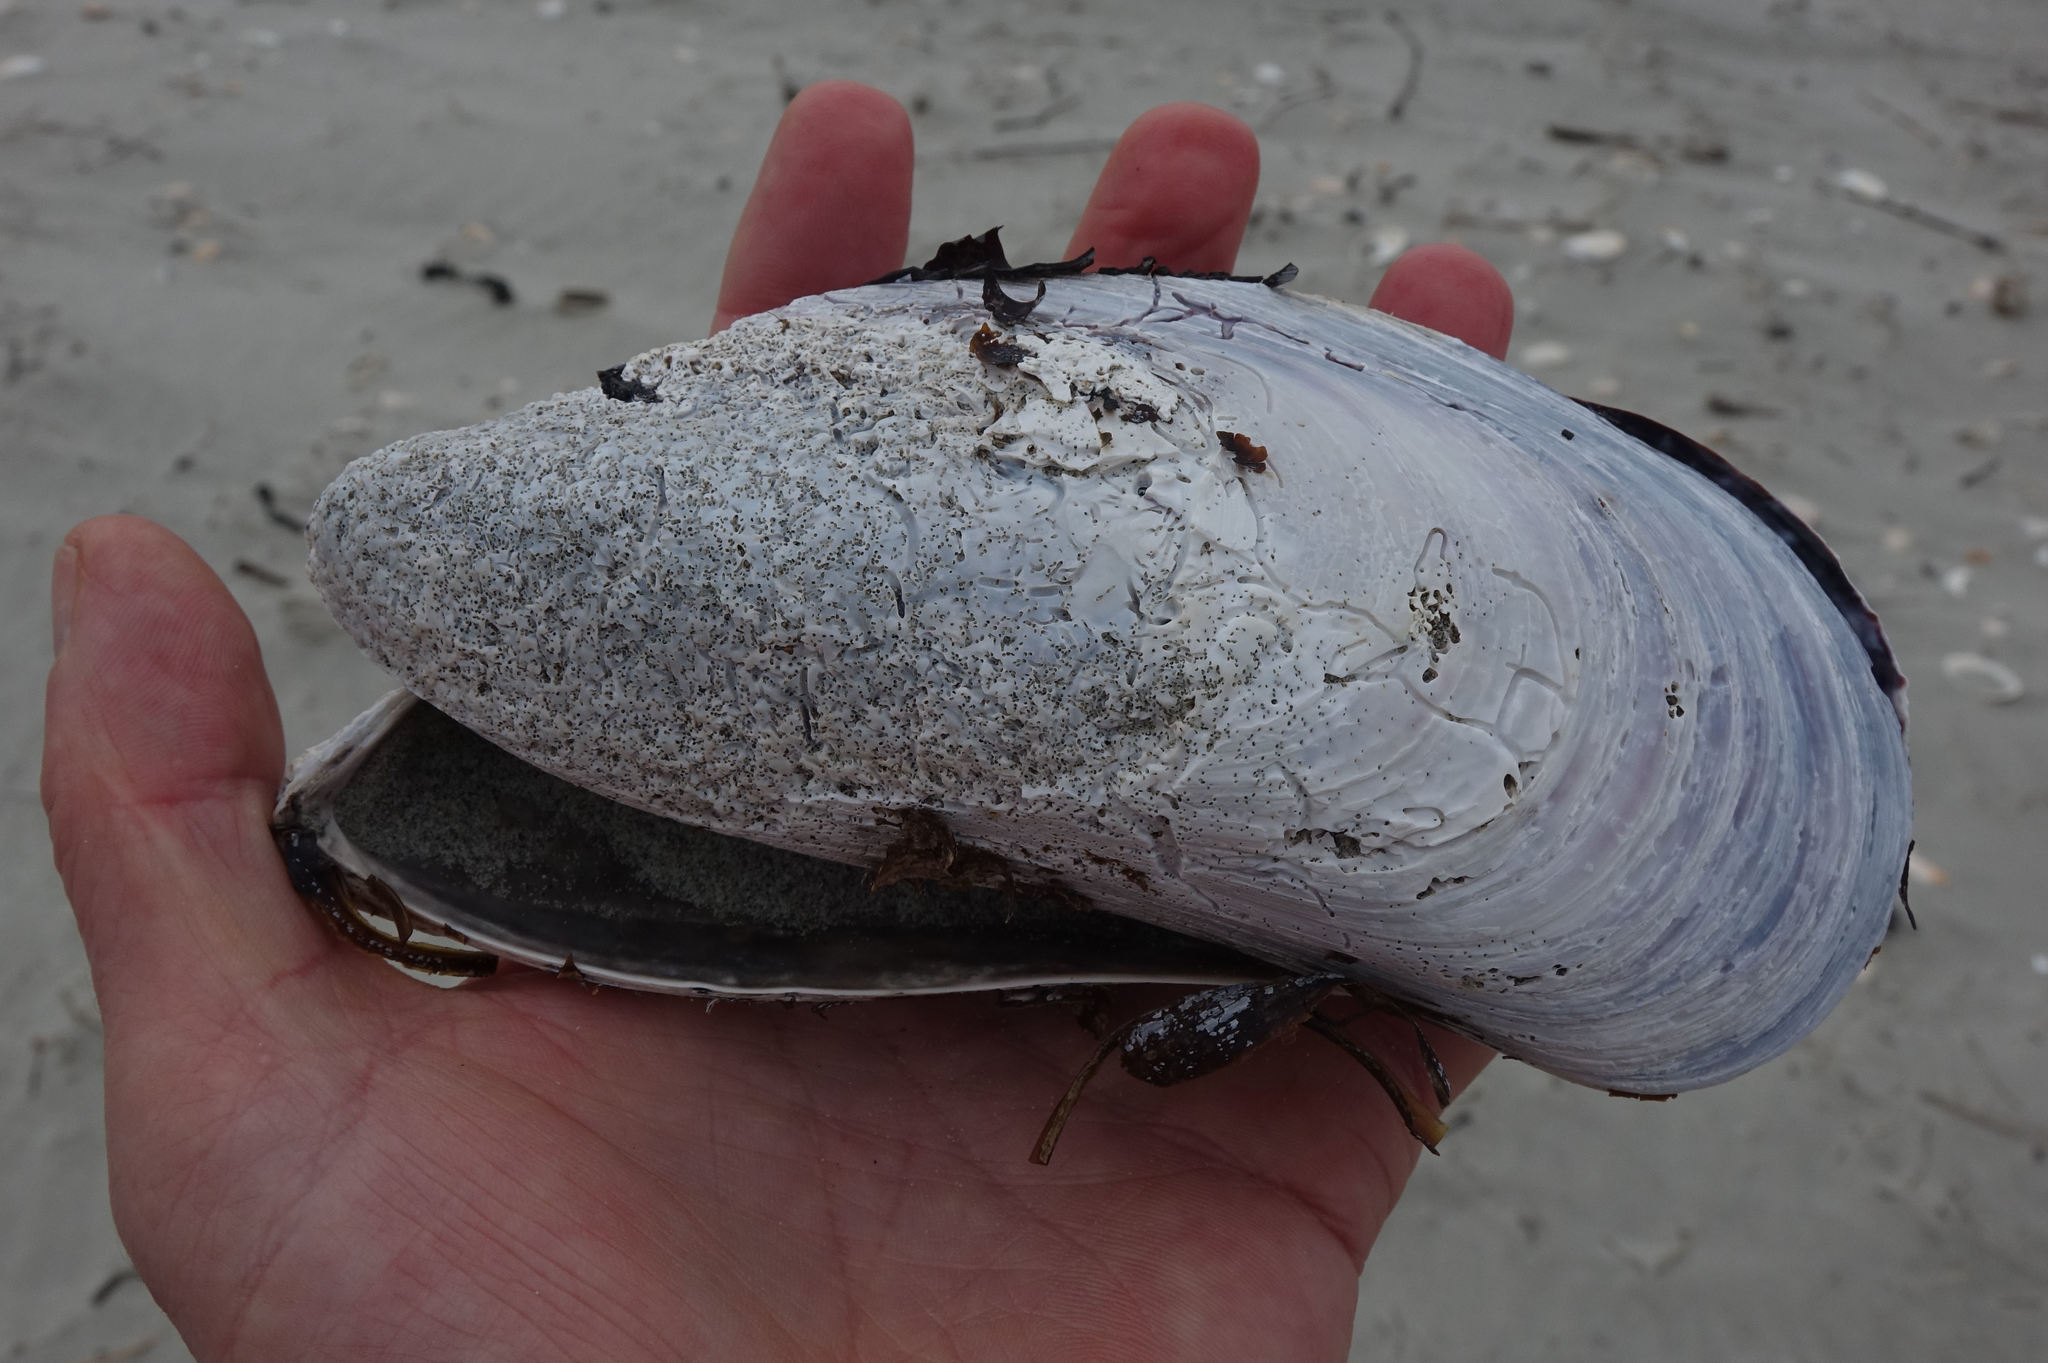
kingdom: Animalia
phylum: Mollusca
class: Bivalvia
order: Mytilida
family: Mytilidae
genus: Perna
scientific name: Perna canaliculus
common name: New zealand greenshelltm
